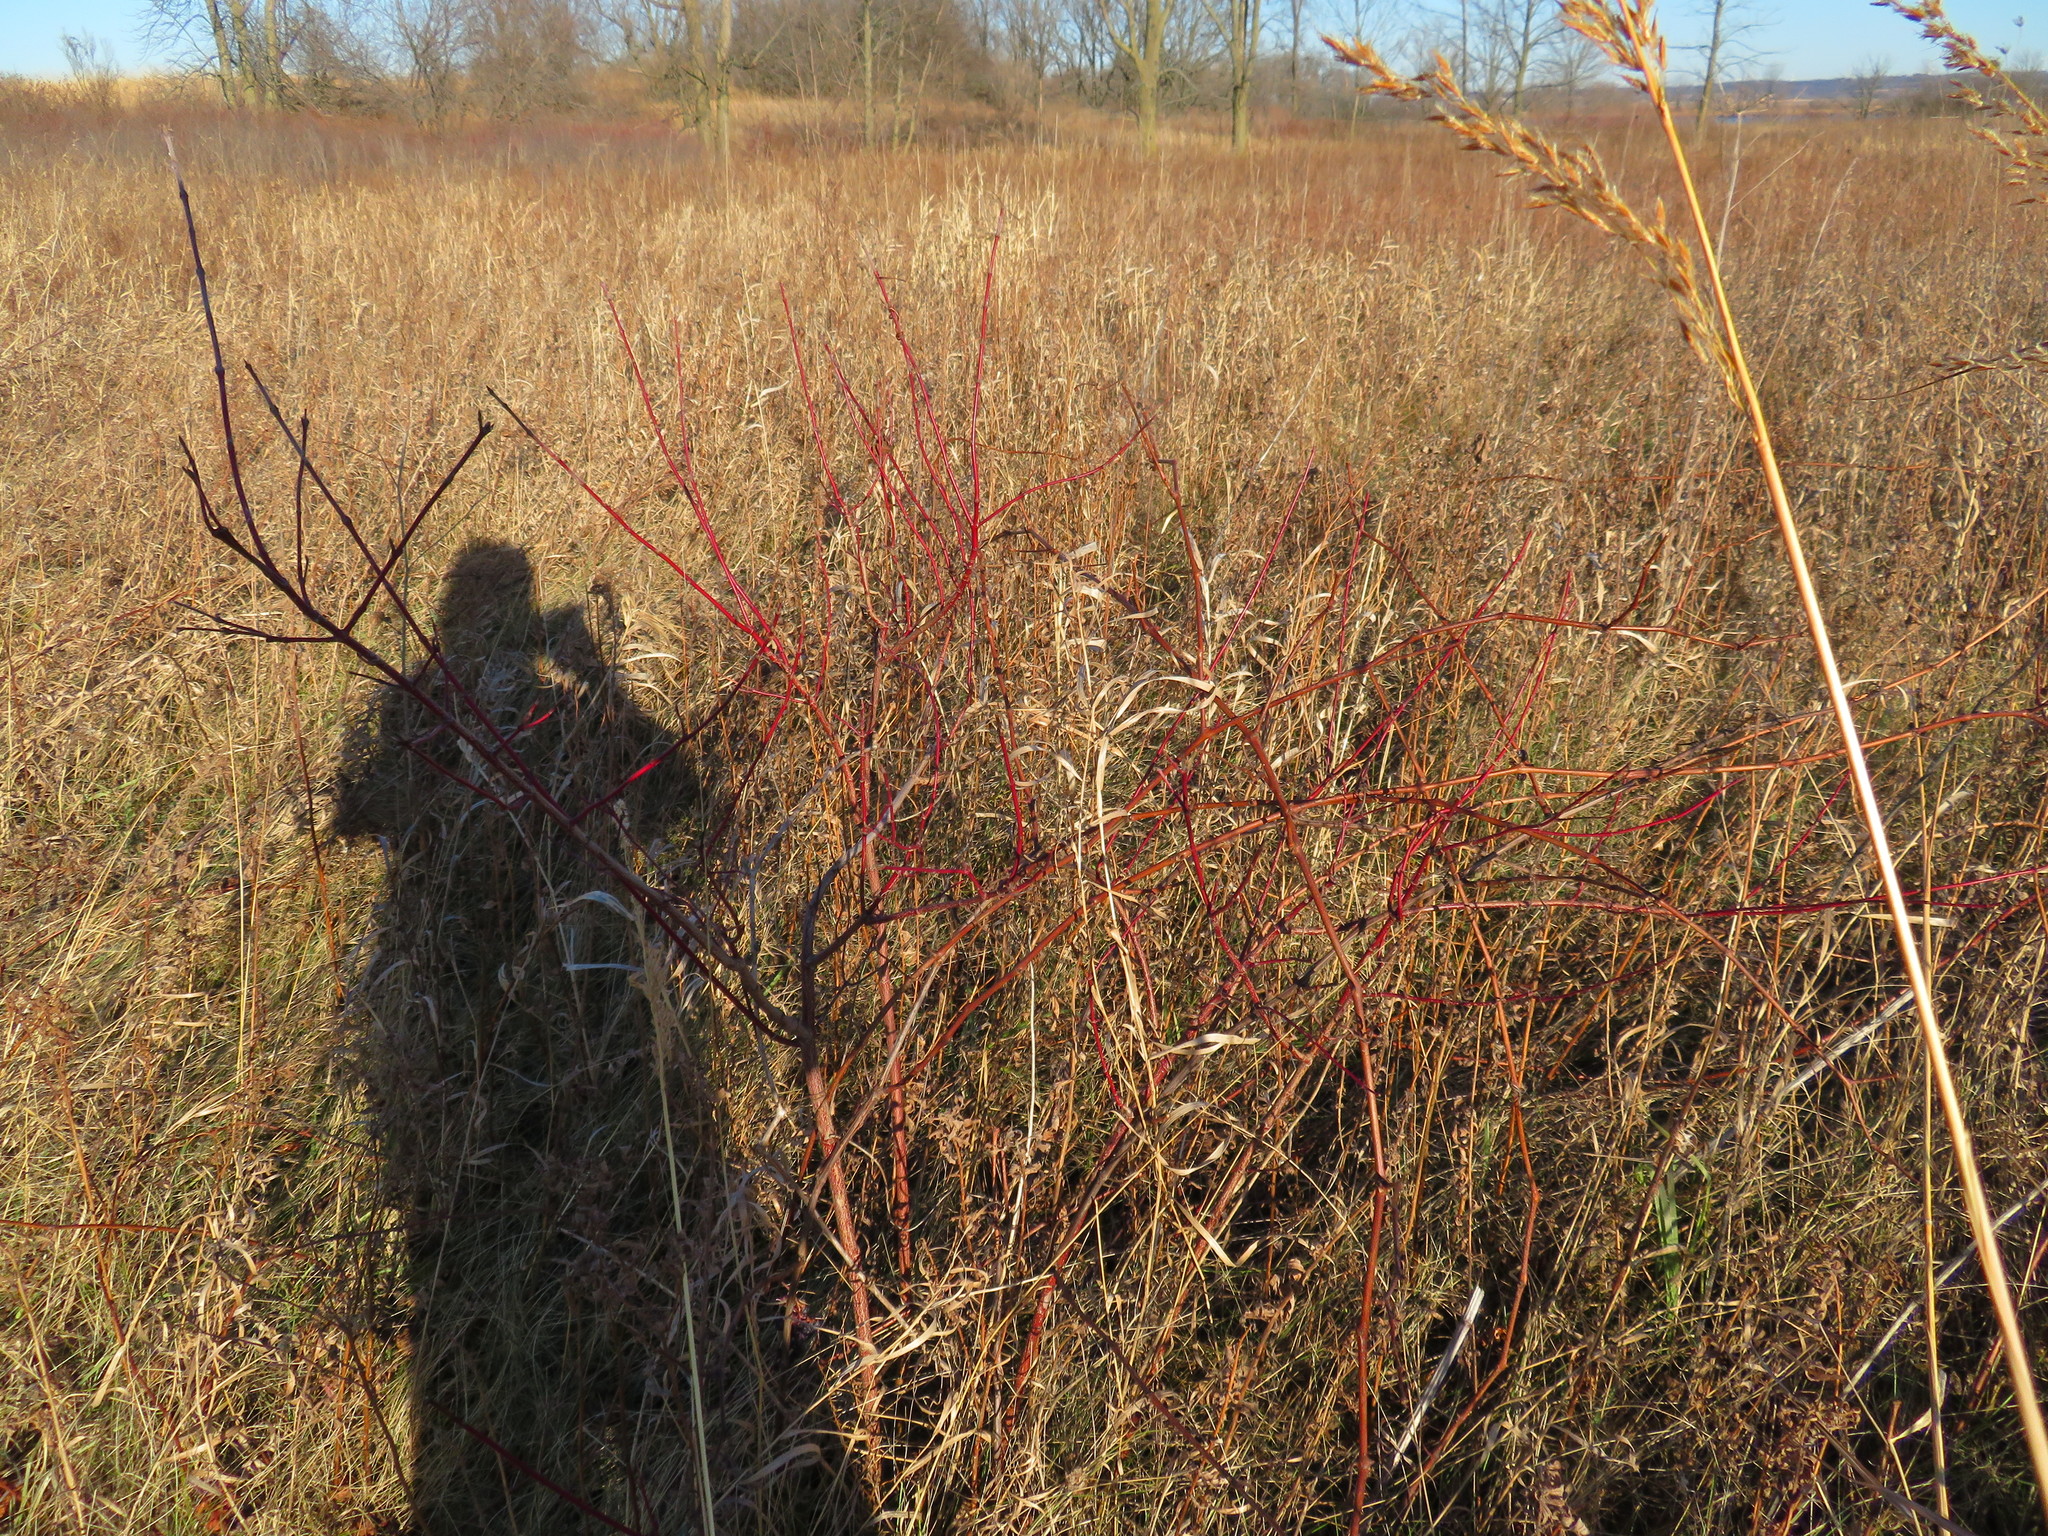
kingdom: Plantae
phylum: Tracheophyta
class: Magnoliopsida
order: Cornales
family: Cornaceae
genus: Cornus
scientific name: Cornus sericea
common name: Red-osier dogwood
